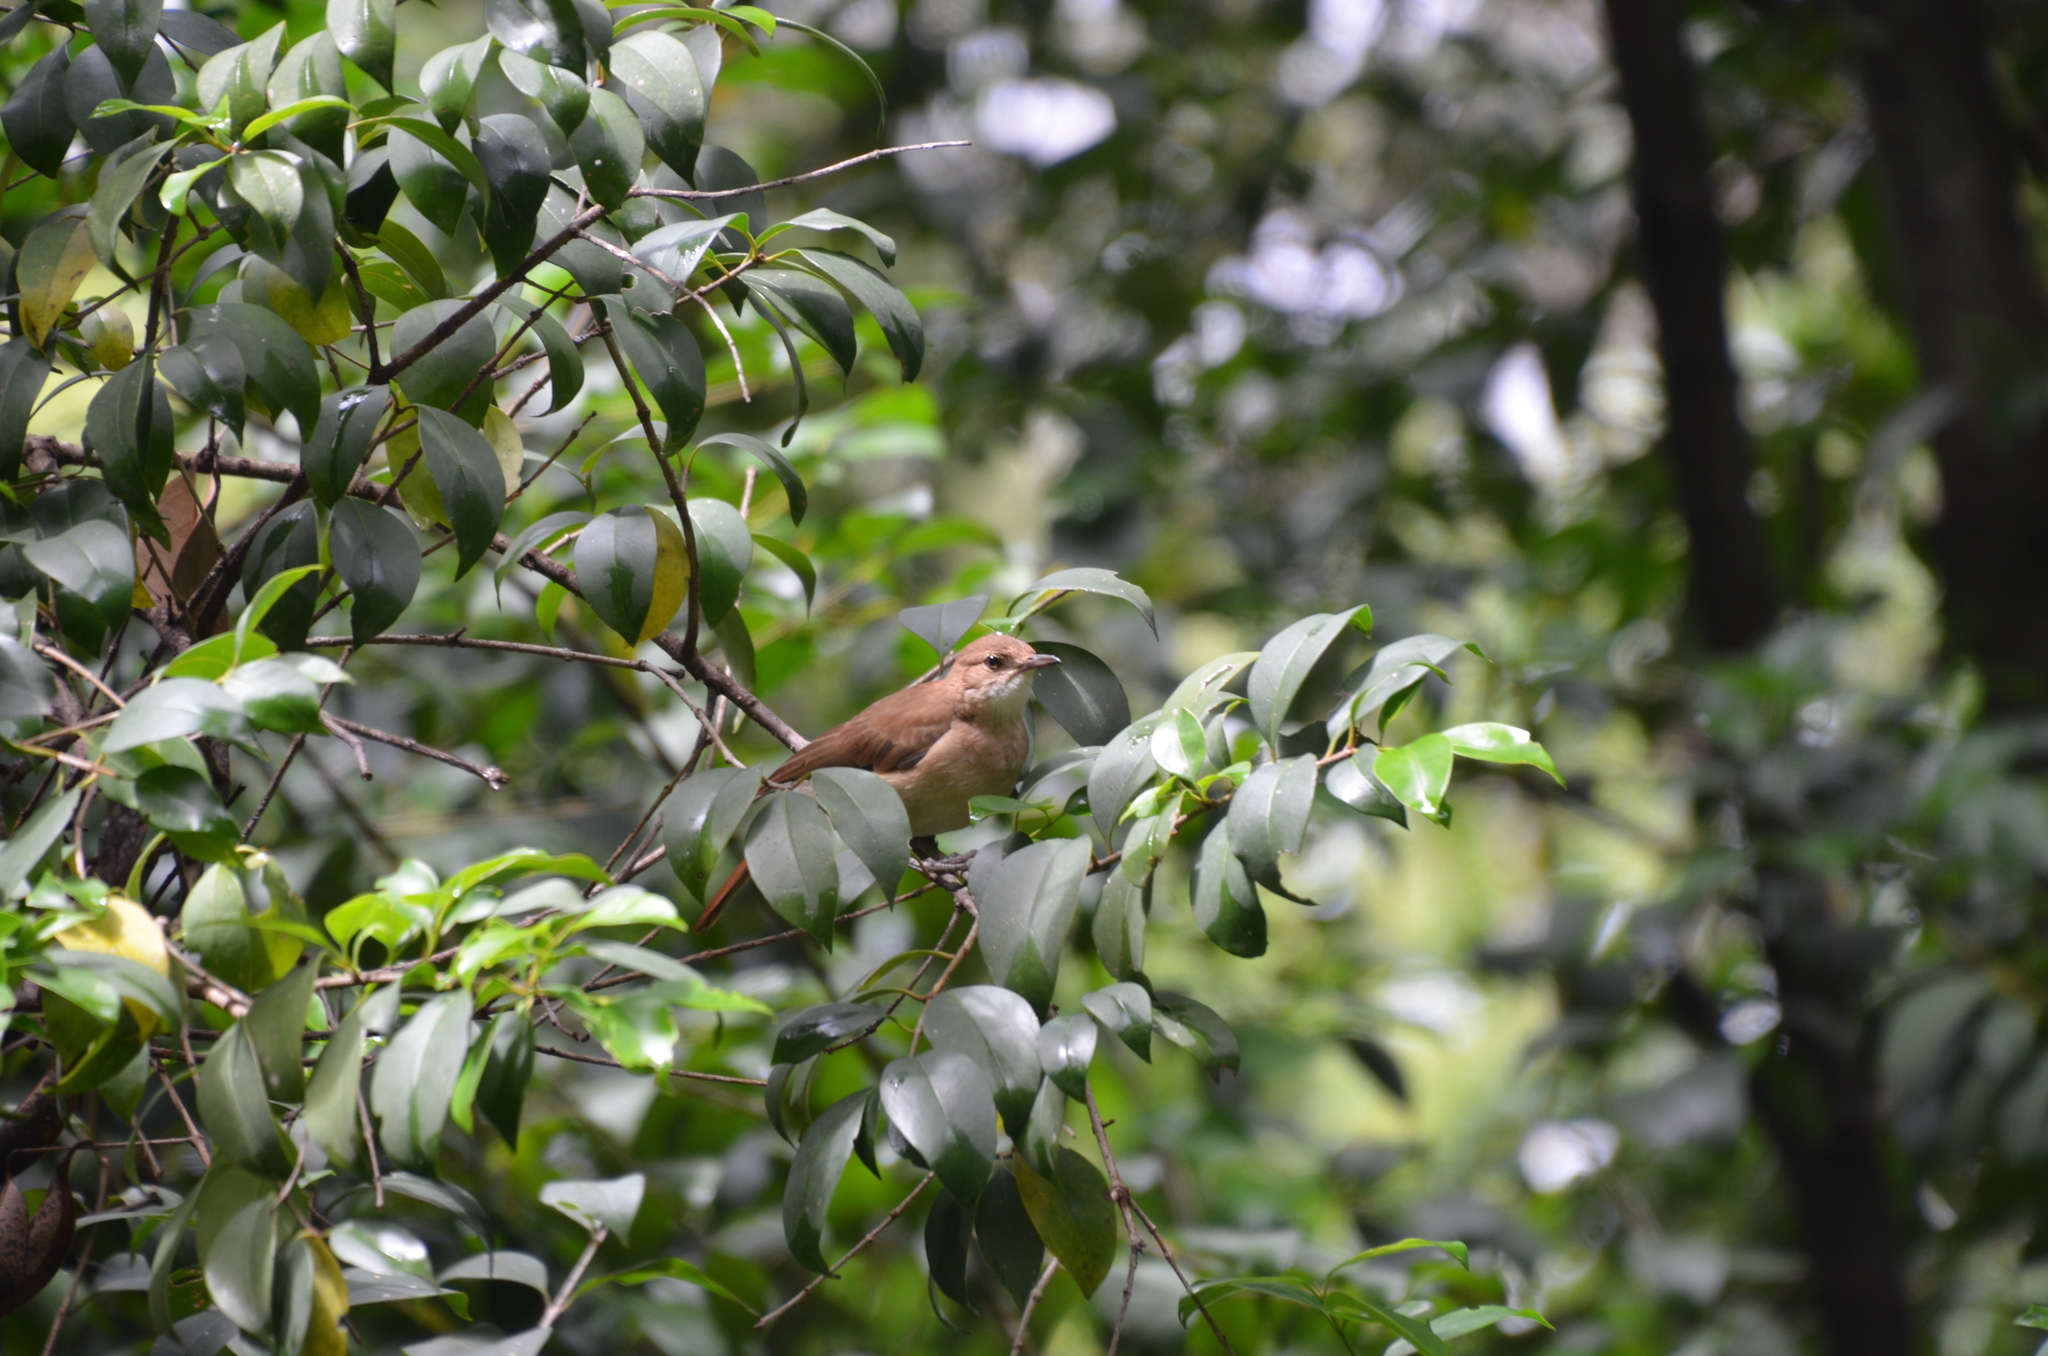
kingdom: Animalia
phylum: Chordata
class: Aves
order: Passeriformes
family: Furnariidae
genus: Furnarius
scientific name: Furnarius rufus
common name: Rufous hornero
